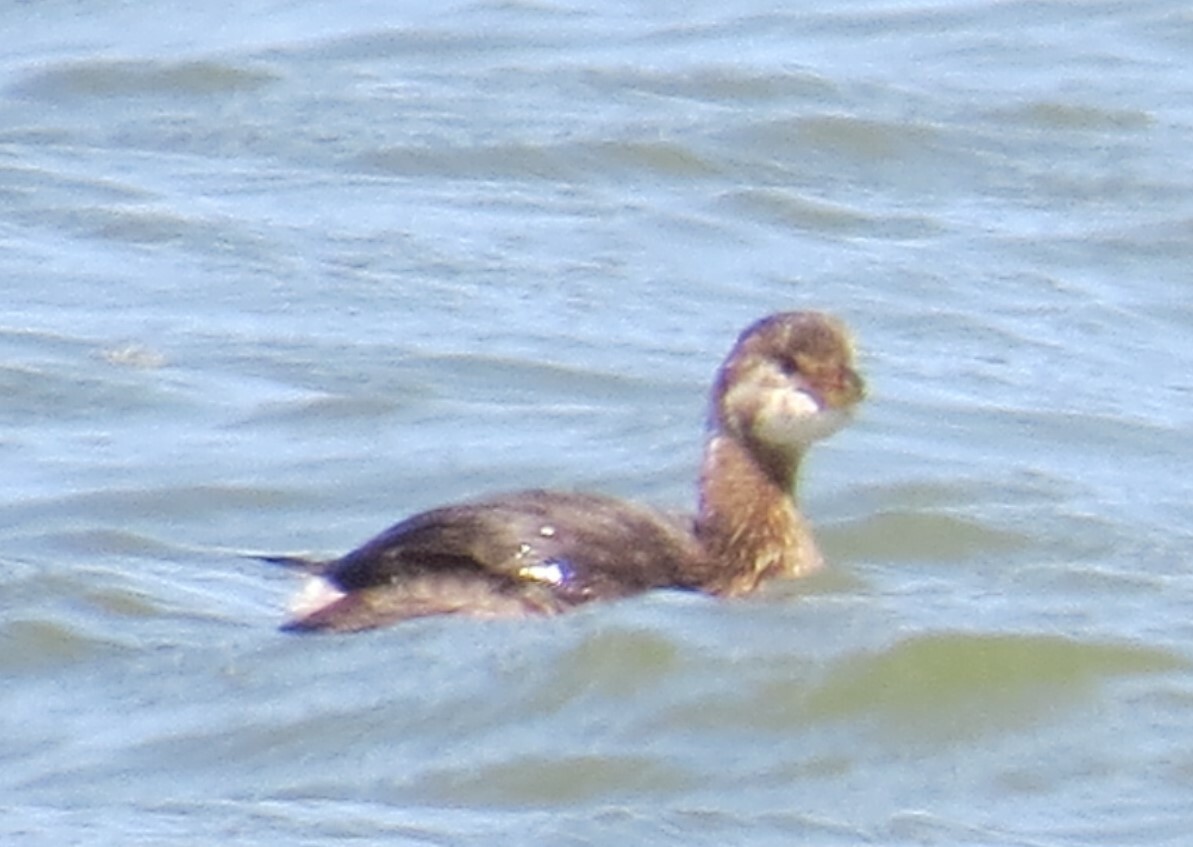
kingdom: Animalia
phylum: Chordata
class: Aves
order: Podicipediformes
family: Podicipedidae
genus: Podilymbus
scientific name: Podilymbus podiceps
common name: Pied-billed grebe
